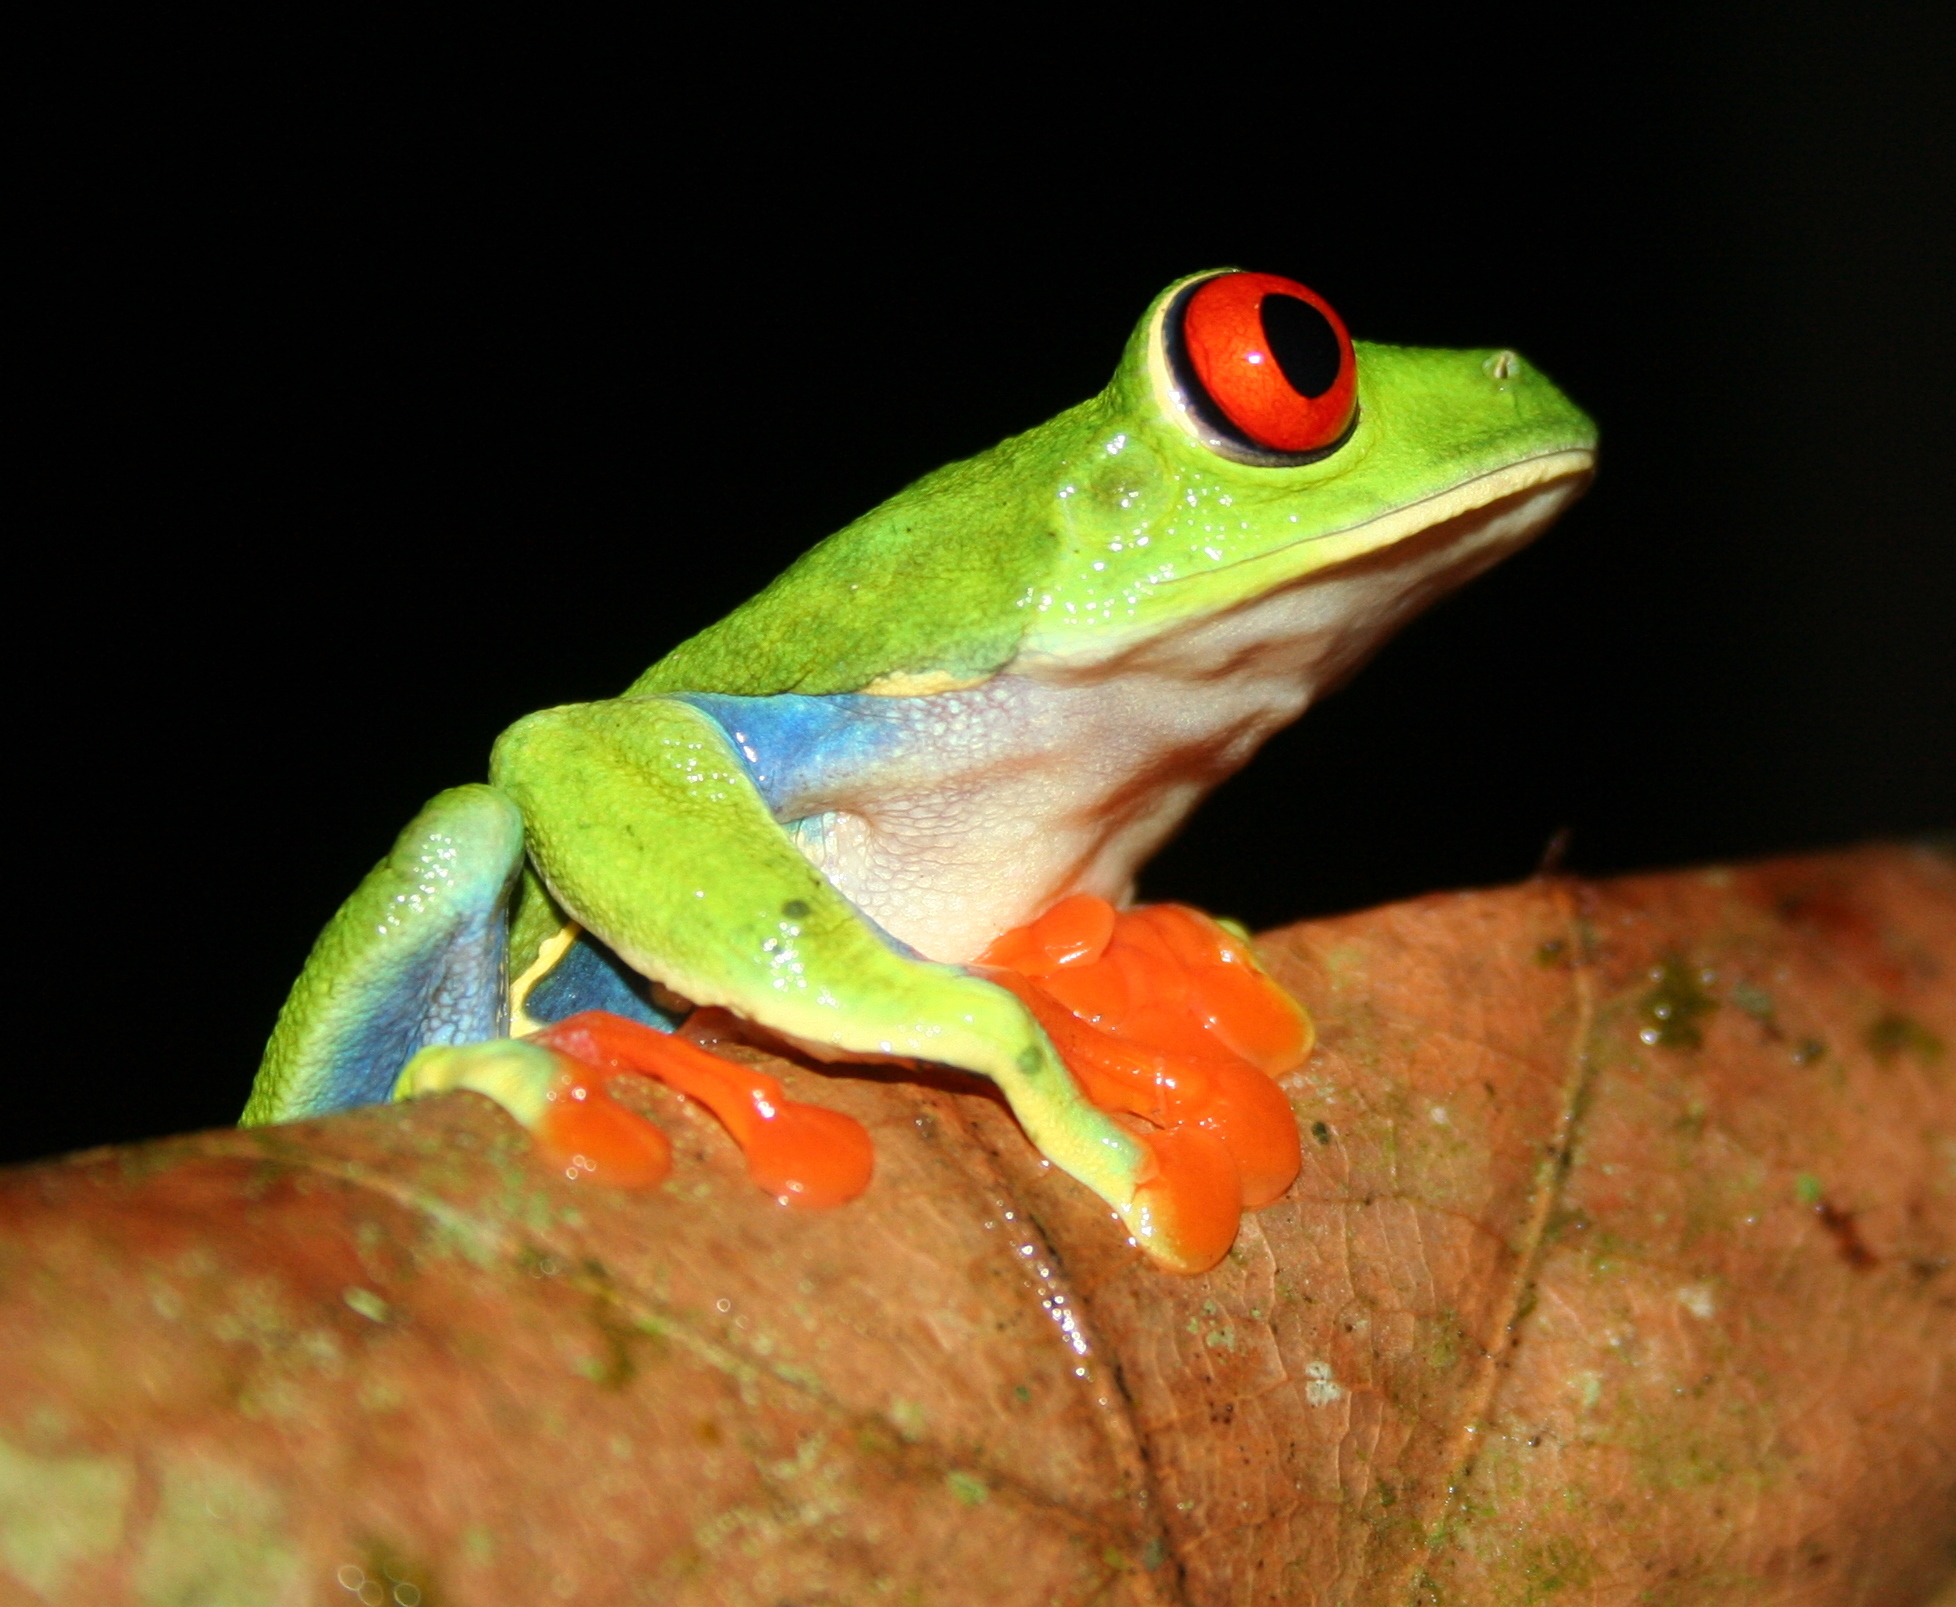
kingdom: Animalia
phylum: Chordata
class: Amphibia
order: Anura
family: Phyllomedusidae
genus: Agalychnis
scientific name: Agalychnis callidryas
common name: Red-eyed treefrog
